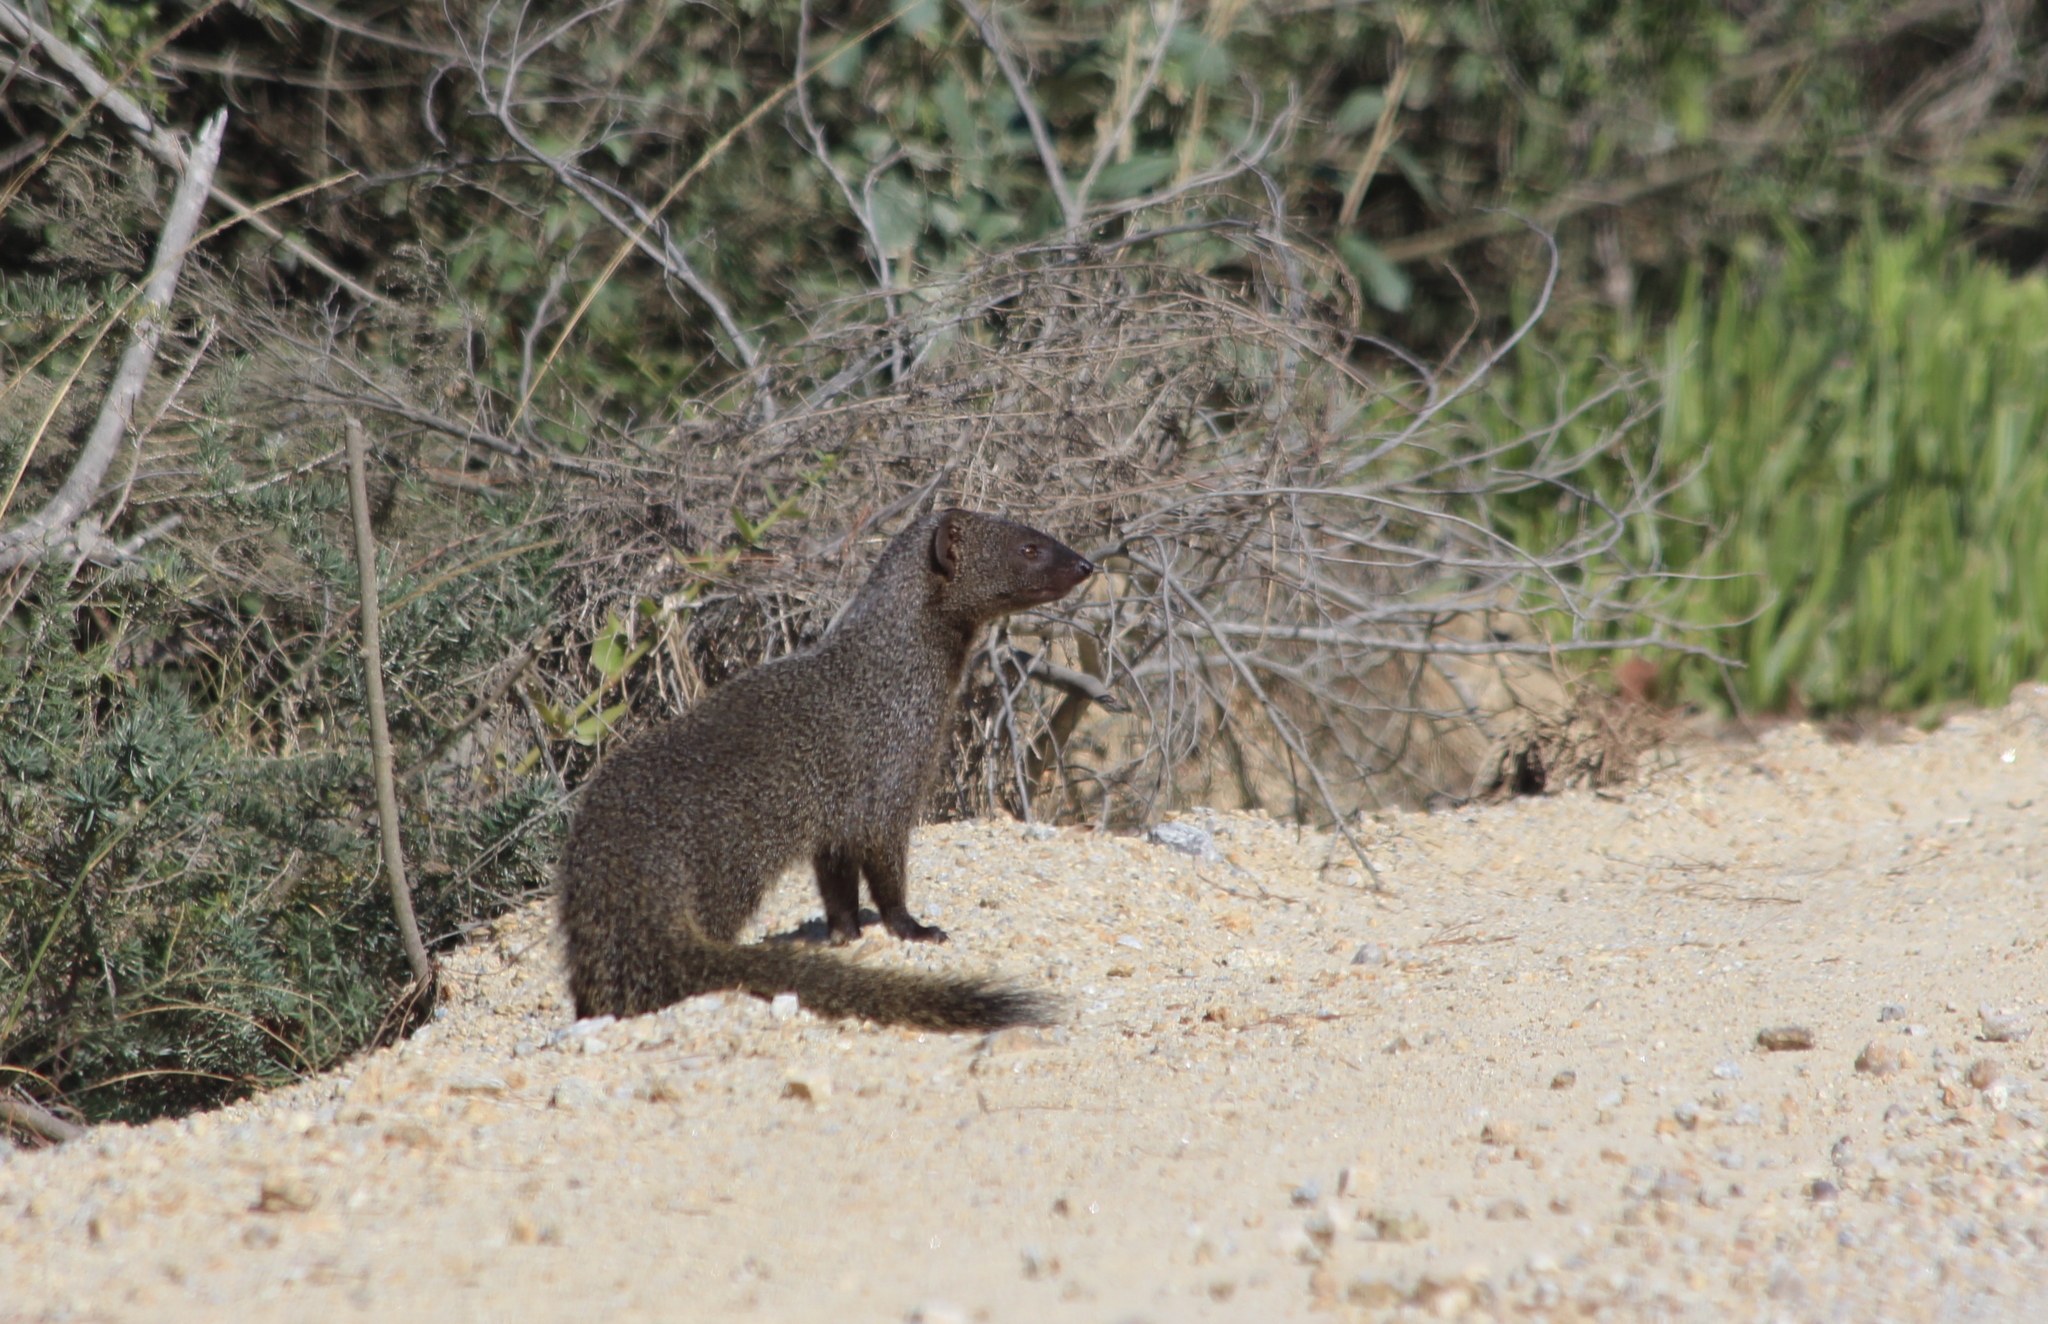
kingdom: Animalia
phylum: Chordata
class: Mammalia
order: Carnivora
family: Herpestidae
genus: Galerella
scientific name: Galerella pulverulenta
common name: Cape gray mongoose
